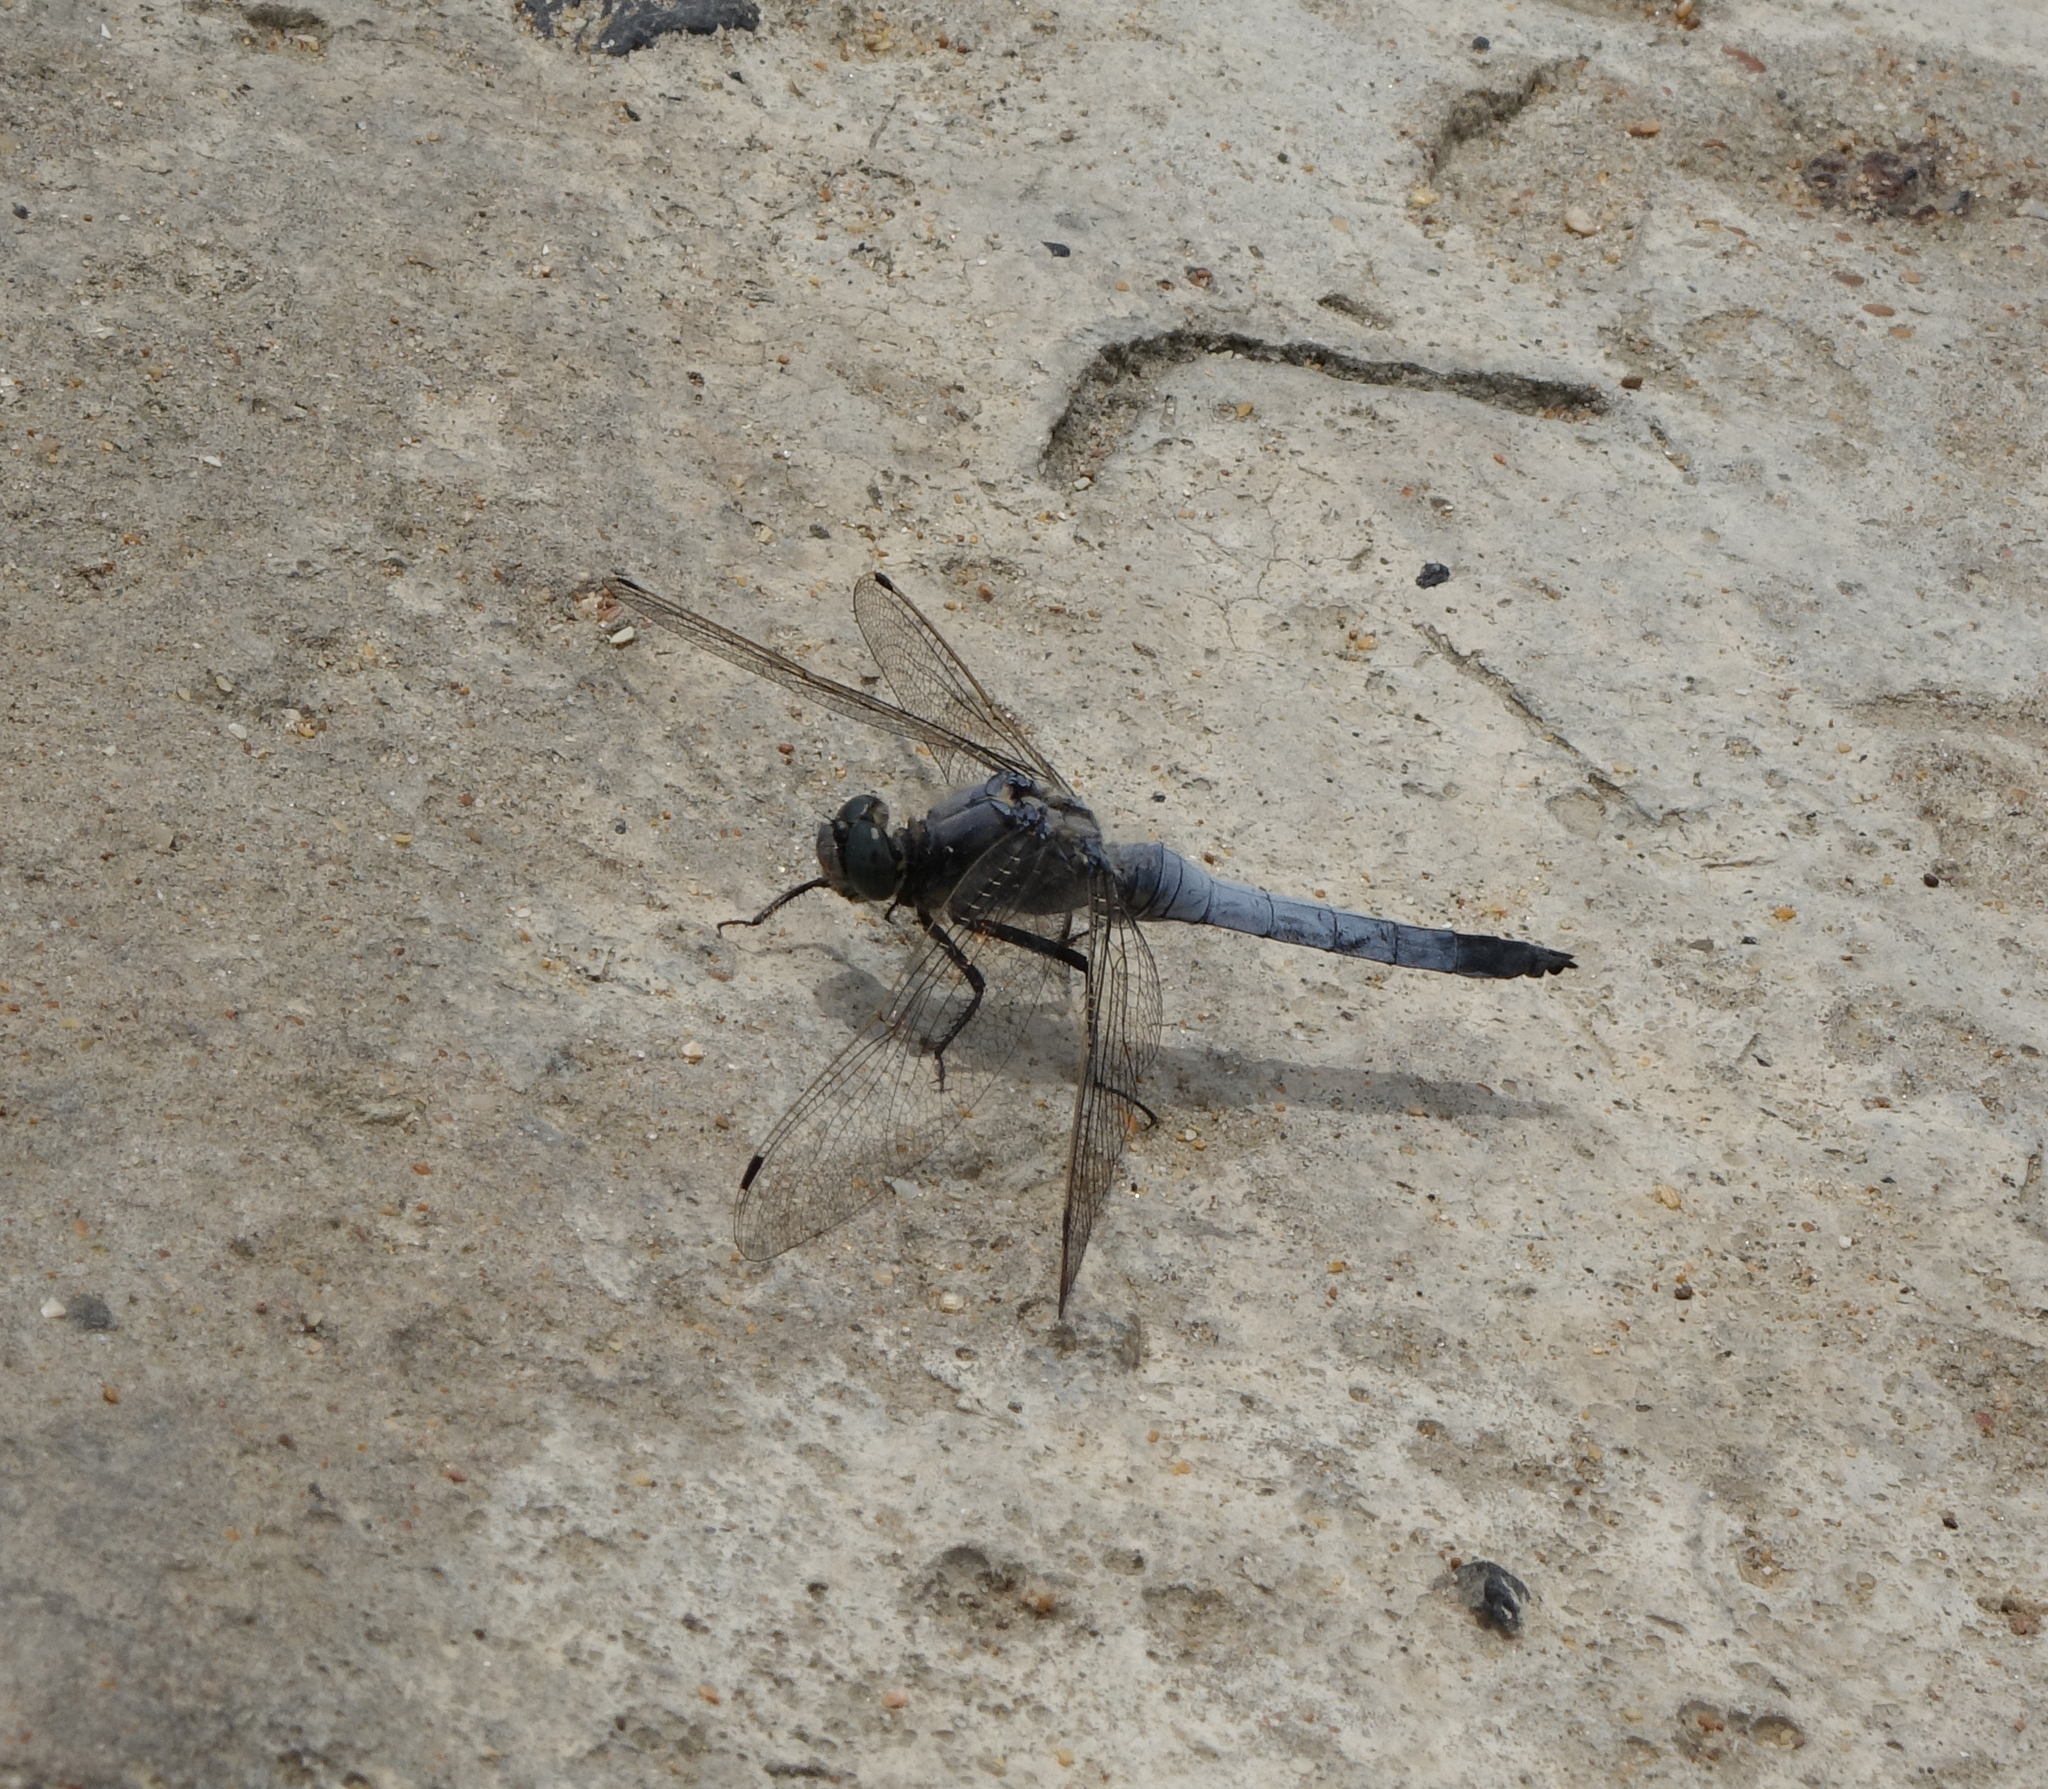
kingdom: Animalia
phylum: Arthropoda
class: Insecta
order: Odonata
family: Libellulidae
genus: Orthetrum
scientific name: Orthetrum cancellatum
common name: Black-tailed skimmer
